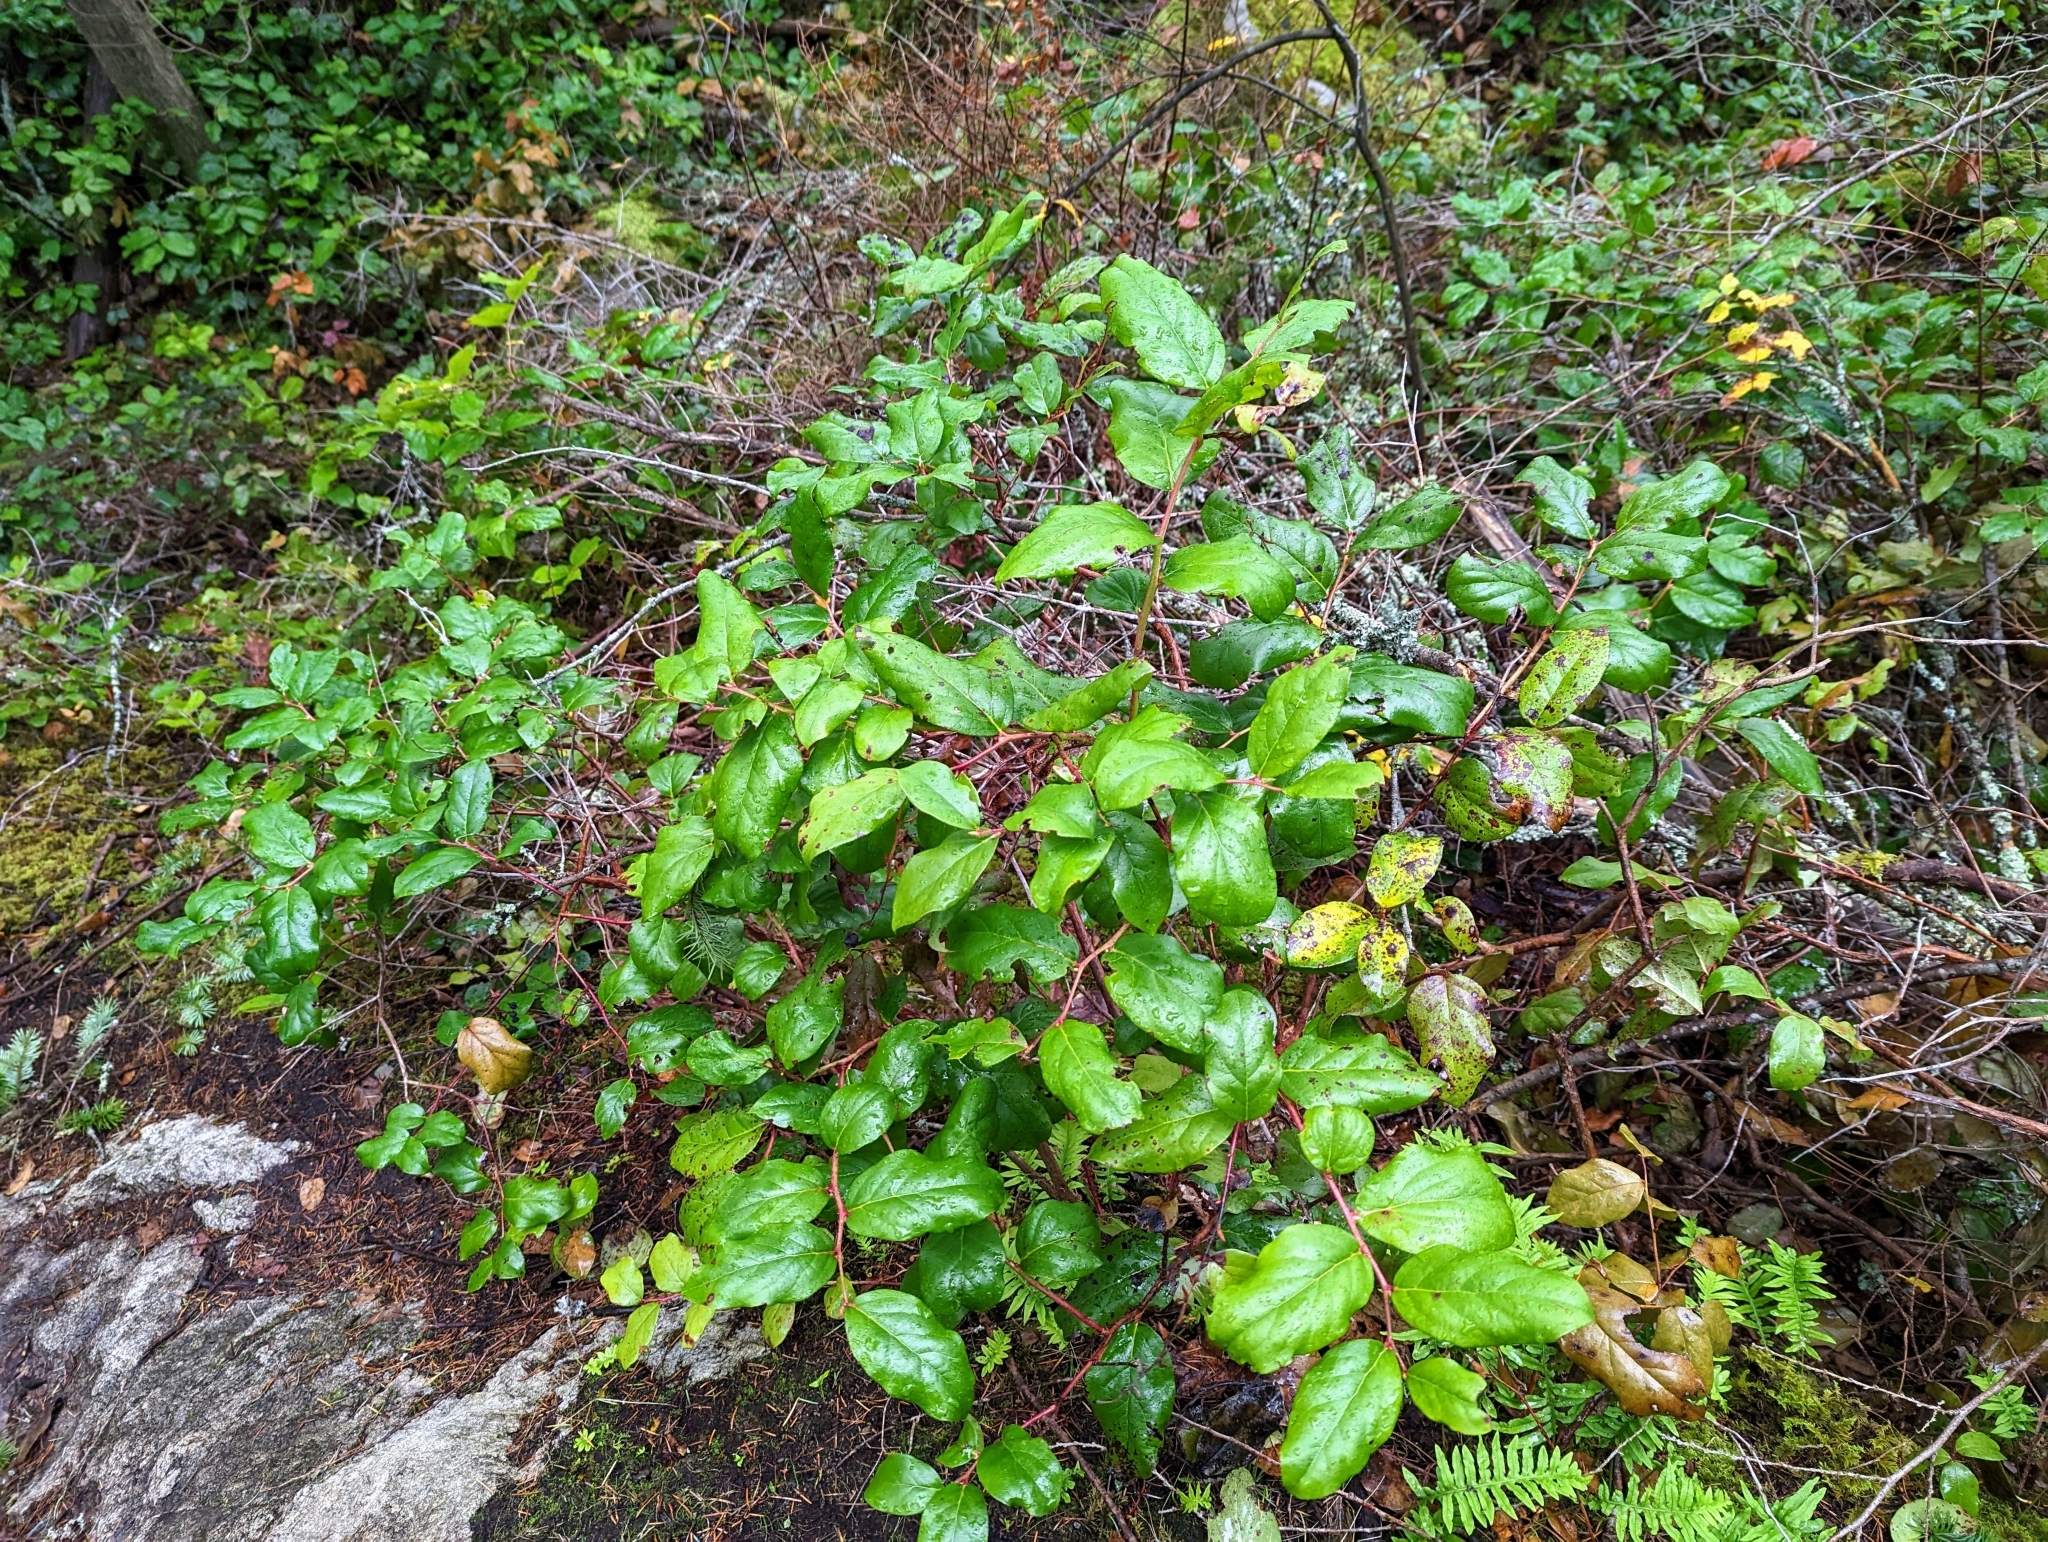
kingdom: Plantae
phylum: Tracheophyta
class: Magnoliopsida
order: Ericales
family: Ericaceae
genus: Gaultheria
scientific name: Gaultheria shallon
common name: Shallon
